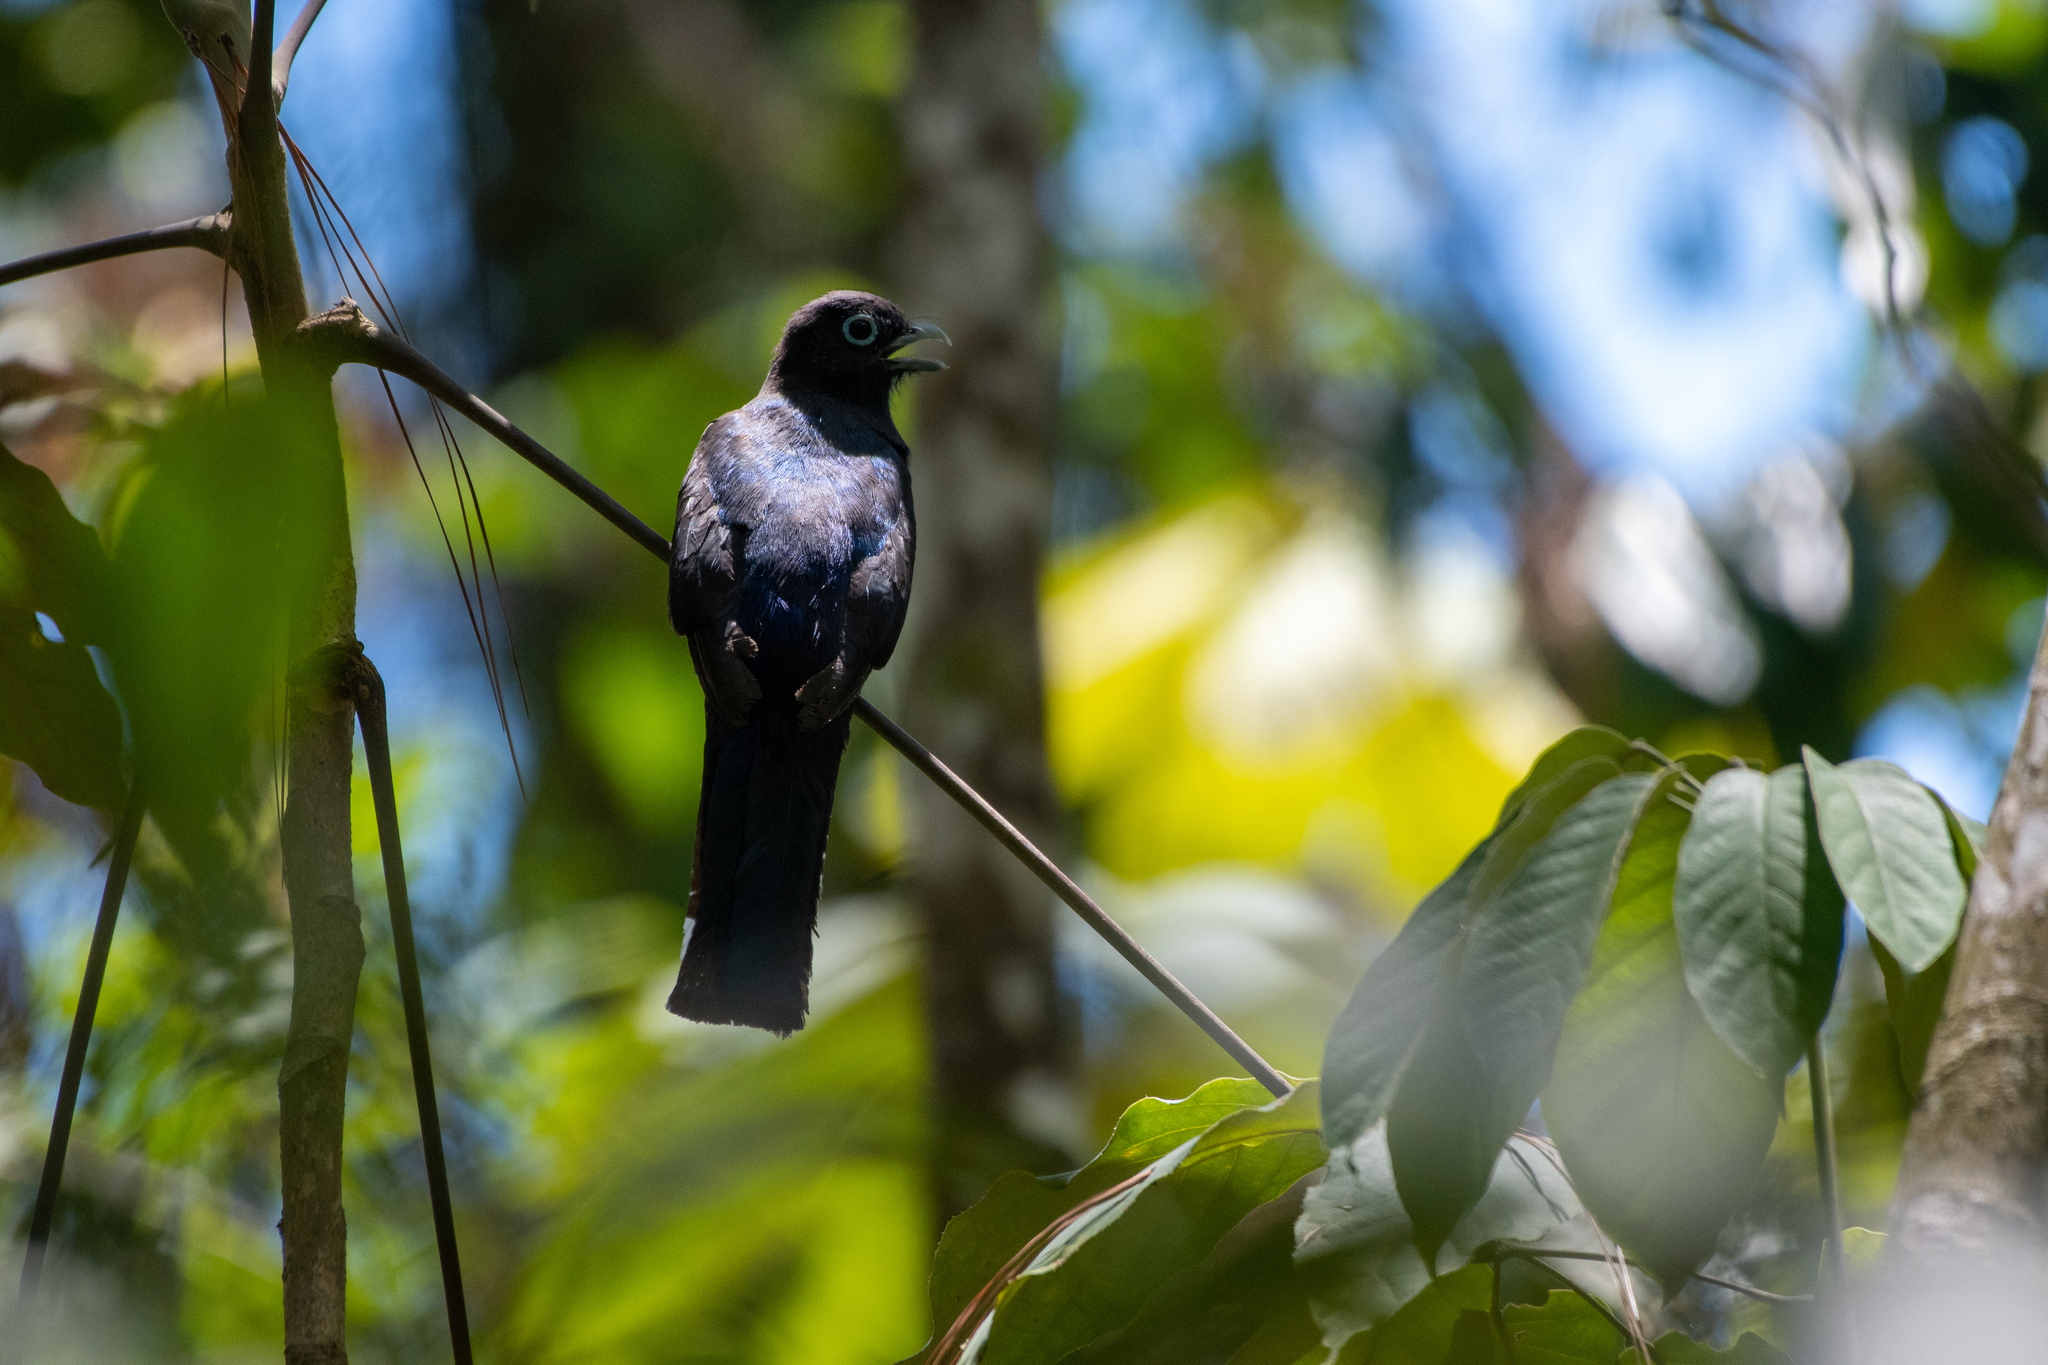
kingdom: Animalia
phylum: Chordata
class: Aves
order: Trogoniformes
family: Trogonidae
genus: Trogon
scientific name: Trogon melanocephalus
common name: Black-headed trogon
